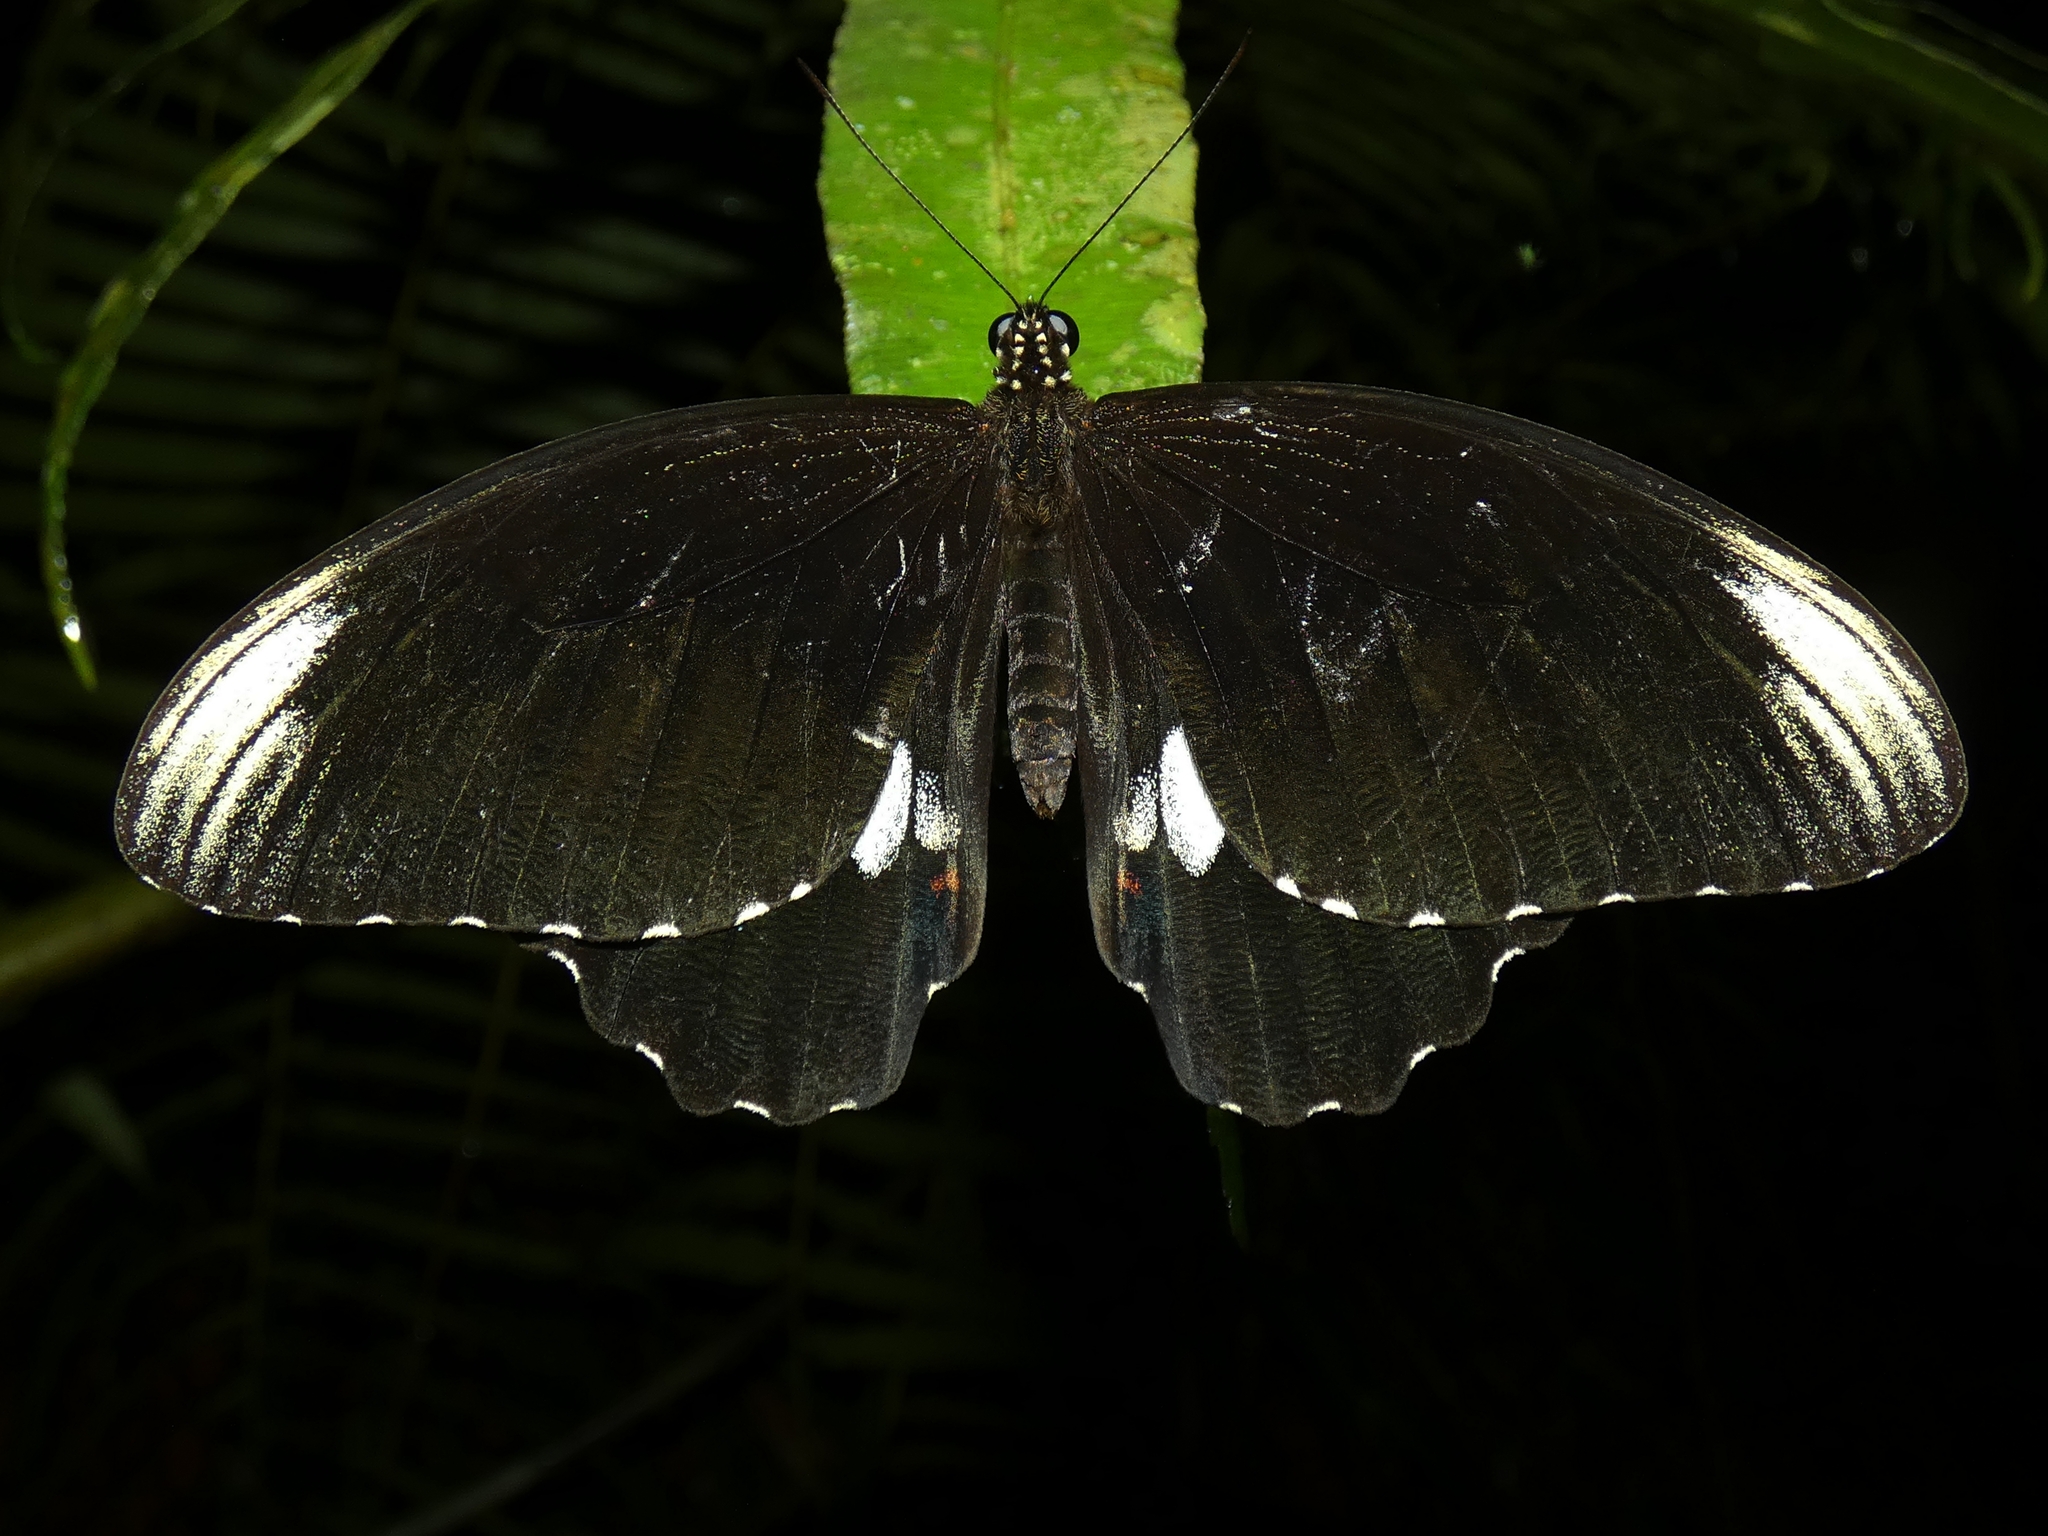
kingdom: Animalia
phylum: Arthropoda
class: Insecta
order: Lepidoptera
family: Papilionidae
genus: Papilio
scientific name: Papilio ambrax
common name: Ambrax butterfly
